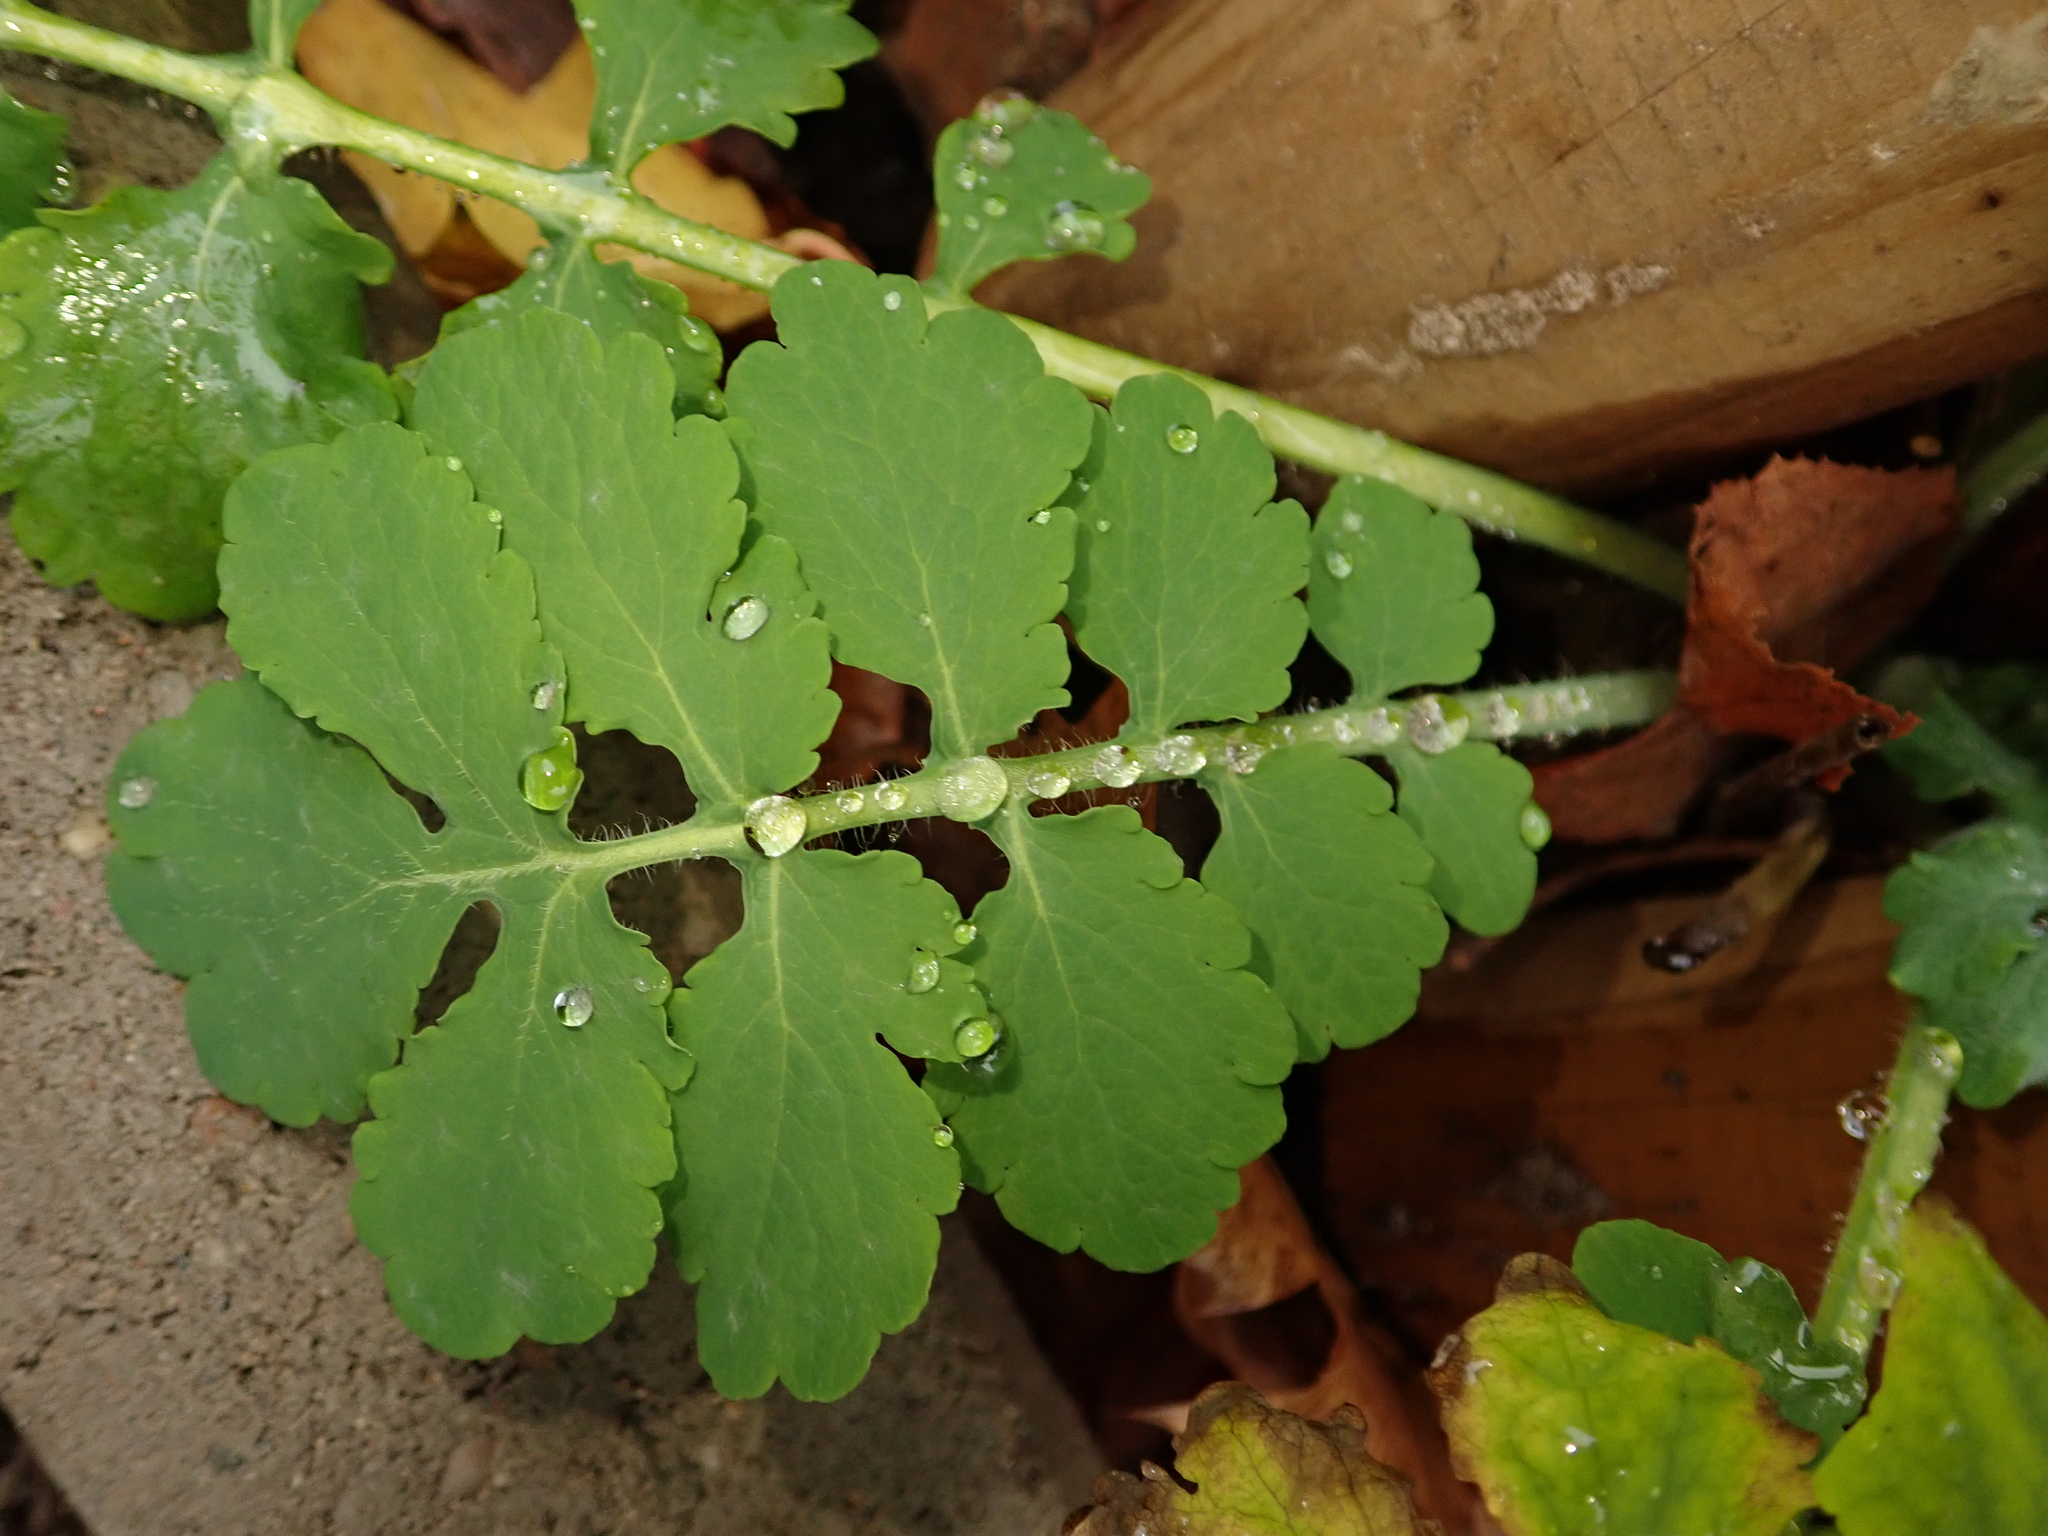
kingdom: Plantae
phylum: Tracheophyta
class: Magnoliopsida
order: Ranunculales
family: Papaveraceae
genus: Chelidonium
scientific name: Chelidonium majus
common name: Greater celandine
